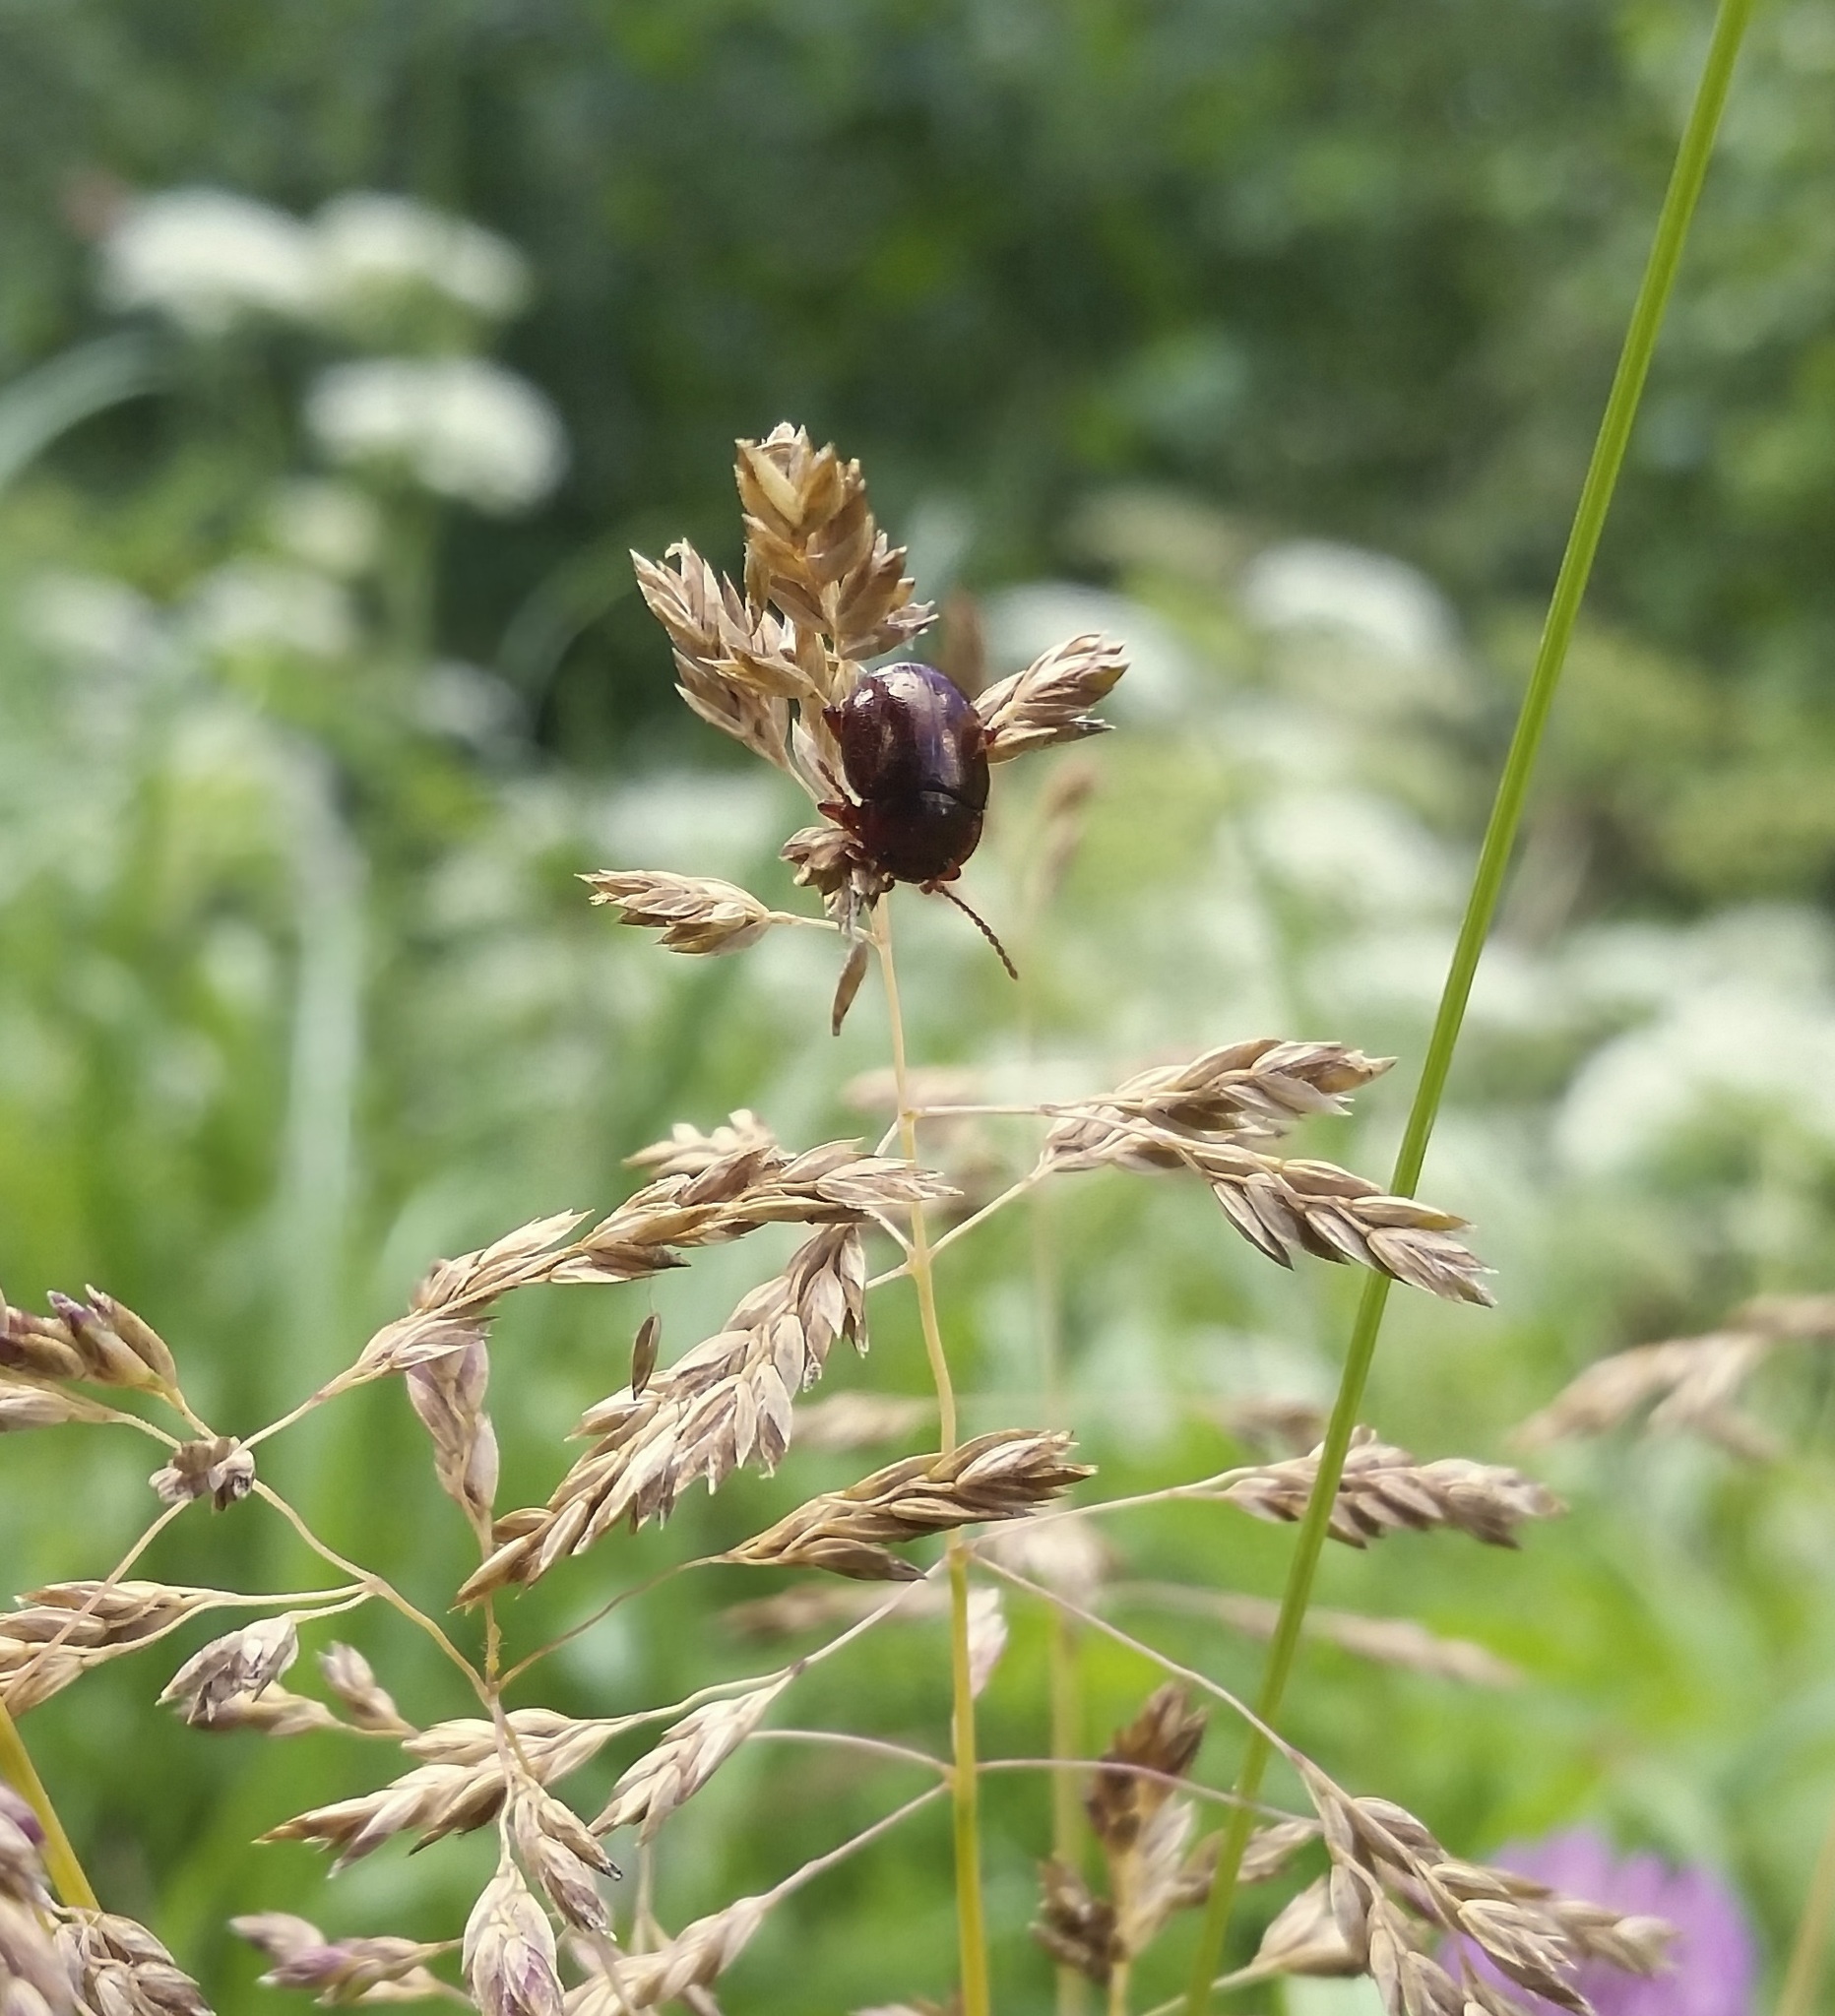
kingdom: Animalia
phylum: Arthropoda
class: Insecta
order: Coleoptera
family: Chrysomelidae
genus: Chrysolina
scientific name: Chrysolina staphylaea
